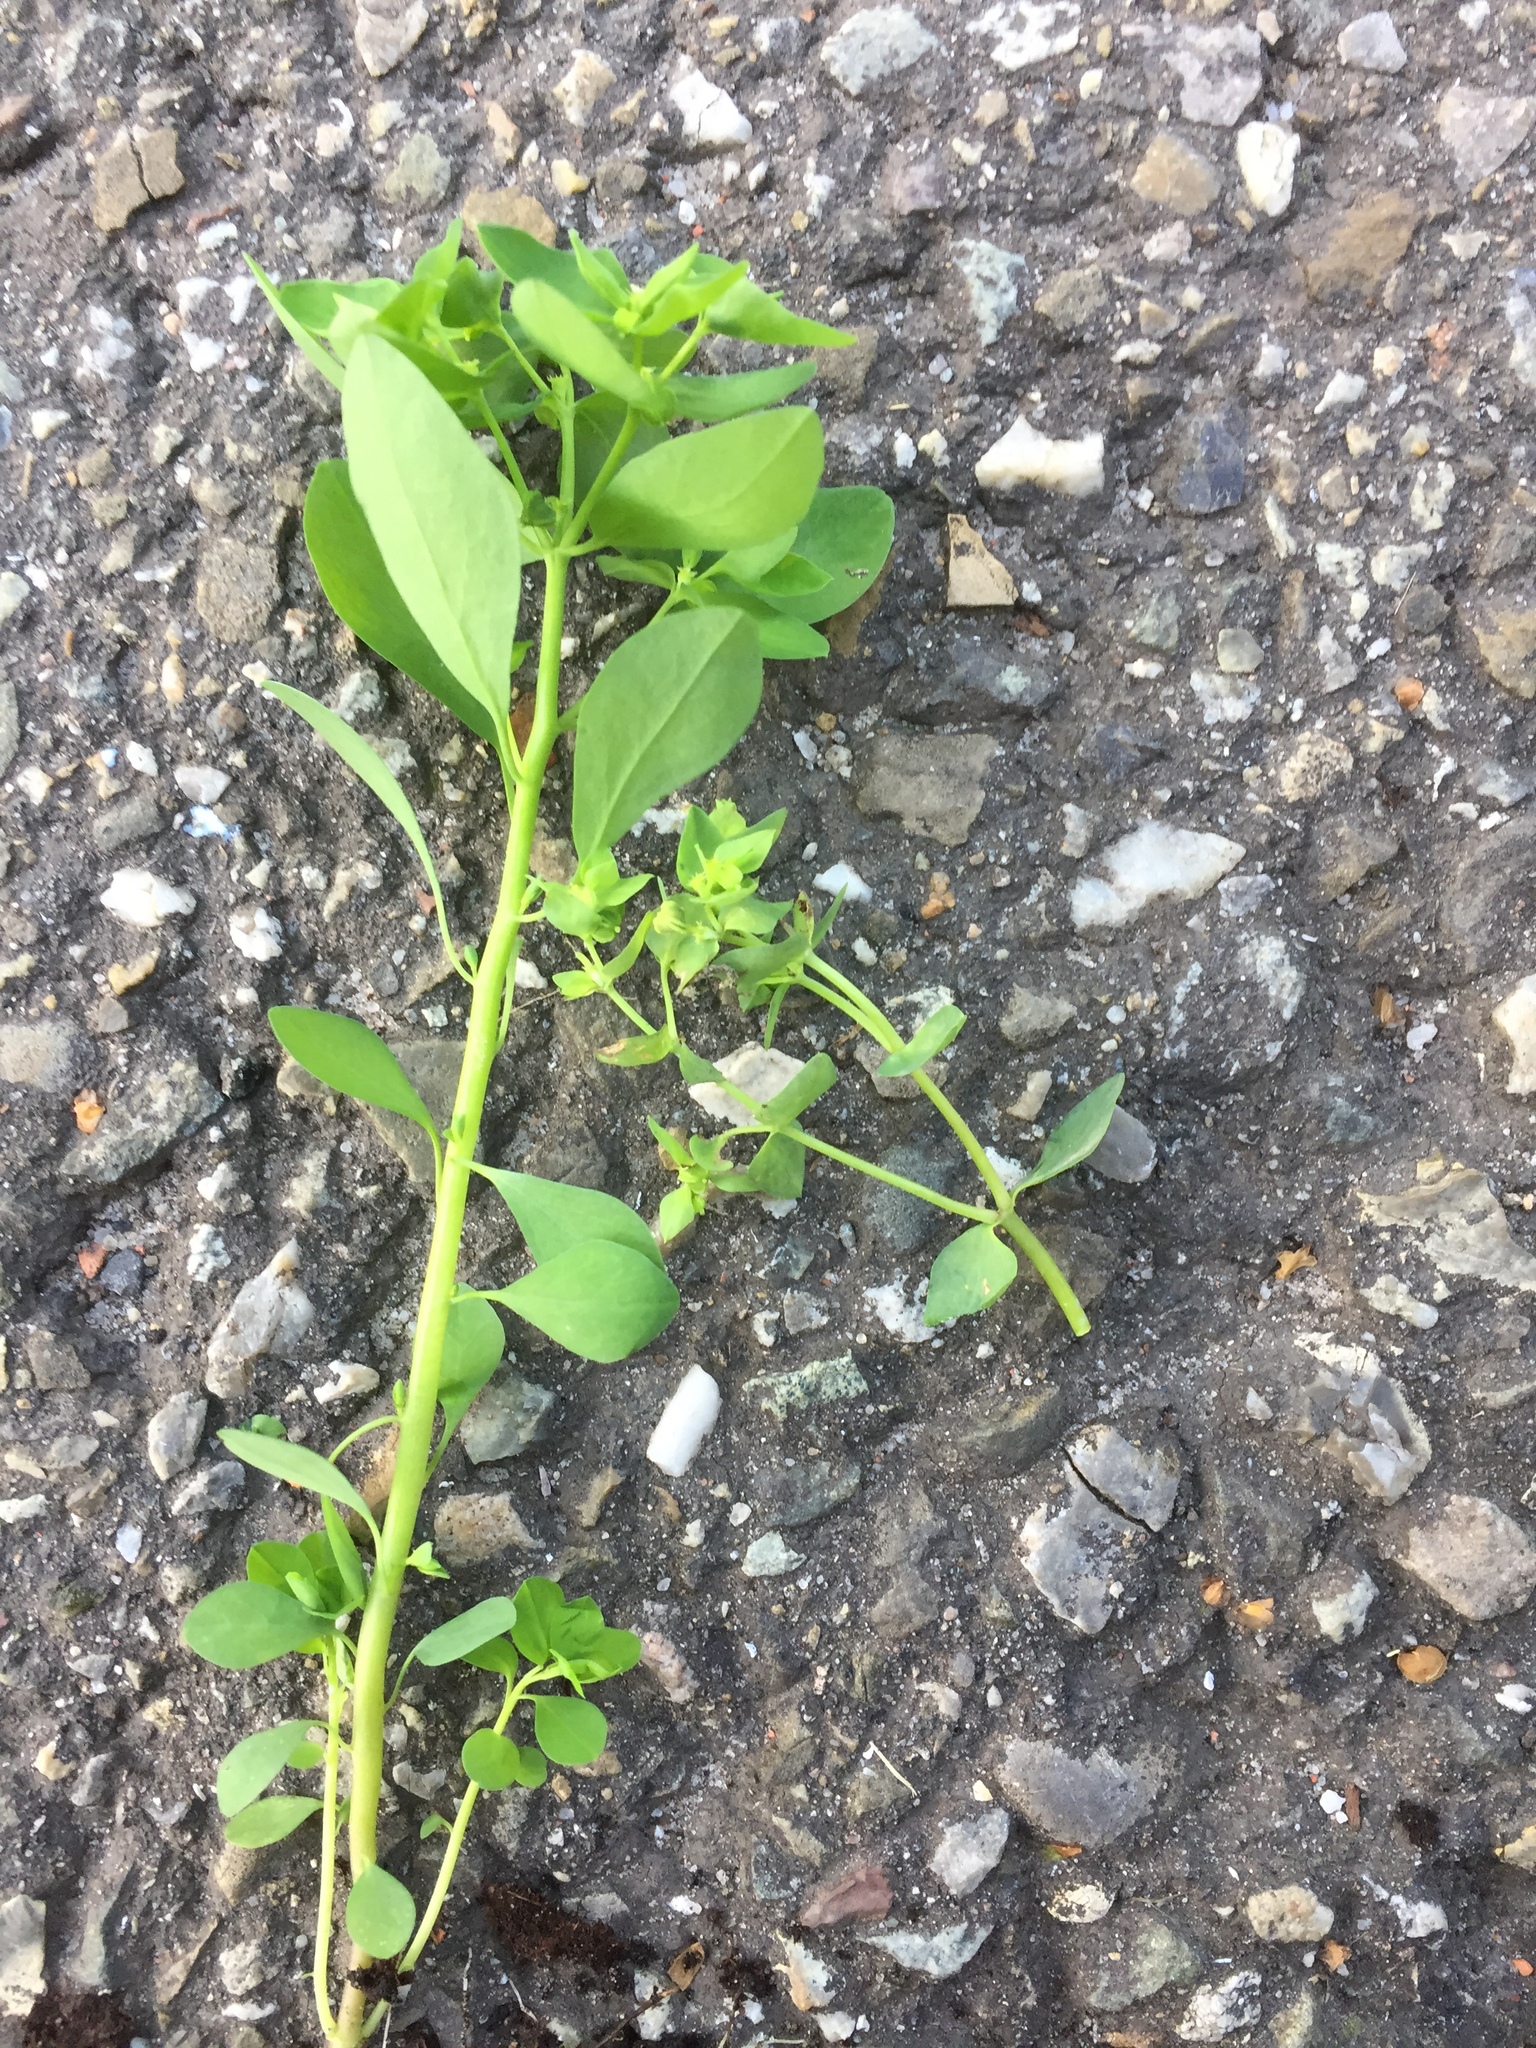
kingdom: Plantae
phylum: Tracheophyta
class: Magnoliopsida
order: Malpighiales
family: Euphorbiaceae
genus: Euphorbia
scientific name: Euphorbia peplus
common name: Petty spurge
